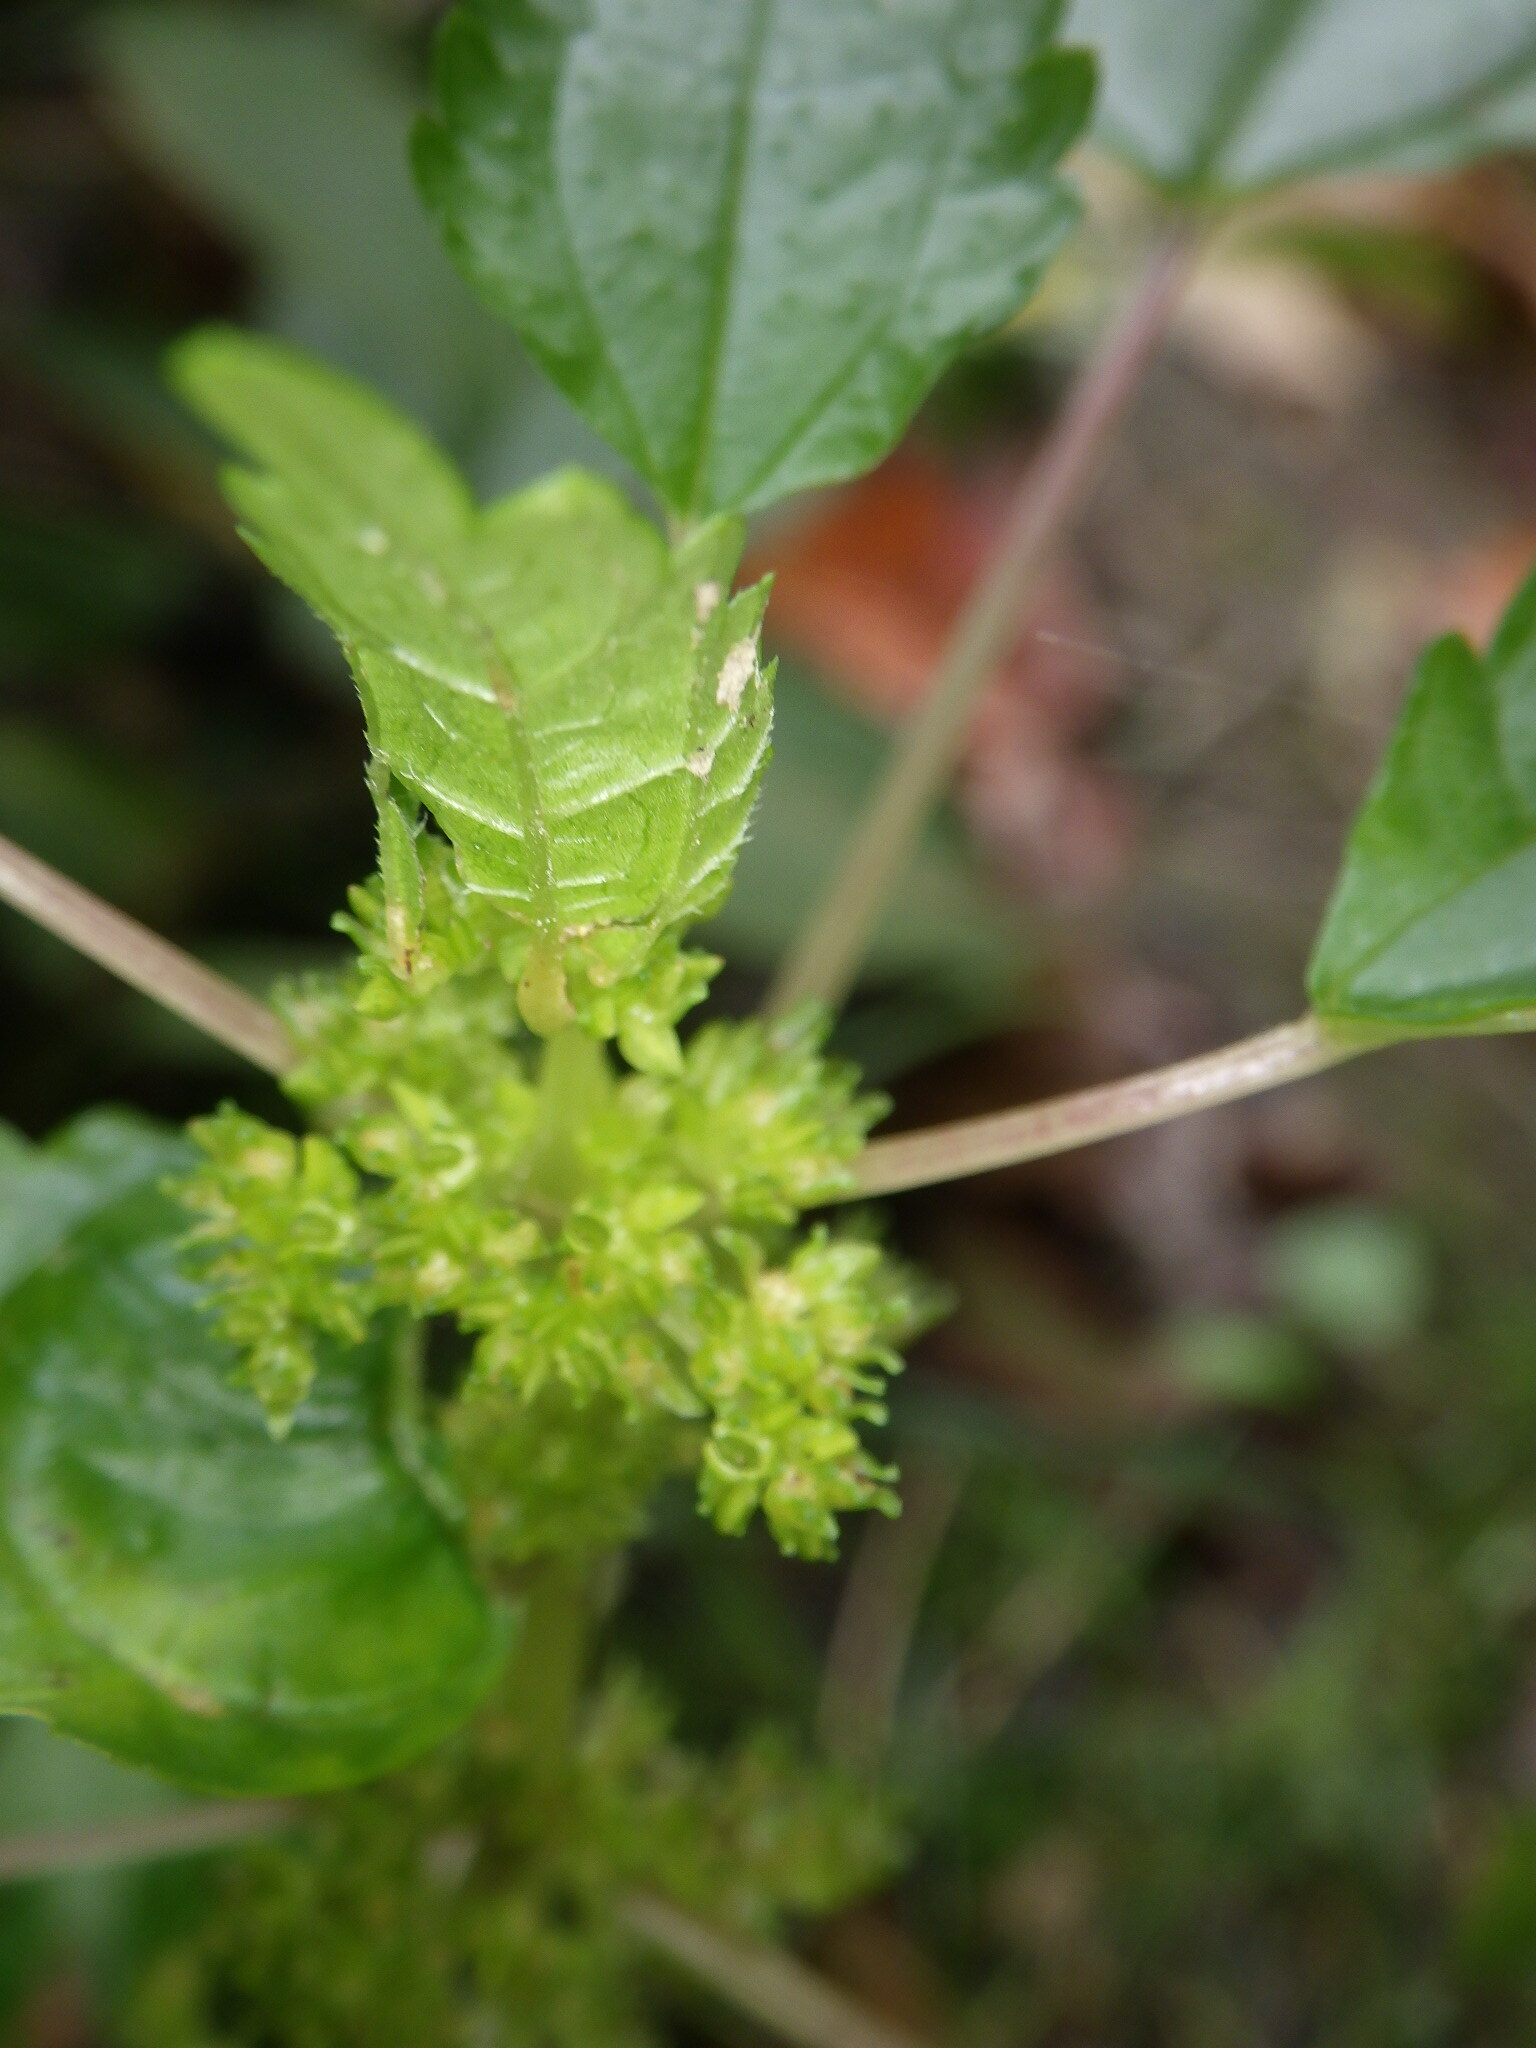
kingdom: Plantae
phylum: Tracheophyta
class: Magnoliopsida
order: Rosales
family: Urticaceae
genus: Pilea
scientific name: Pilea pumila
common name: Clearweed
